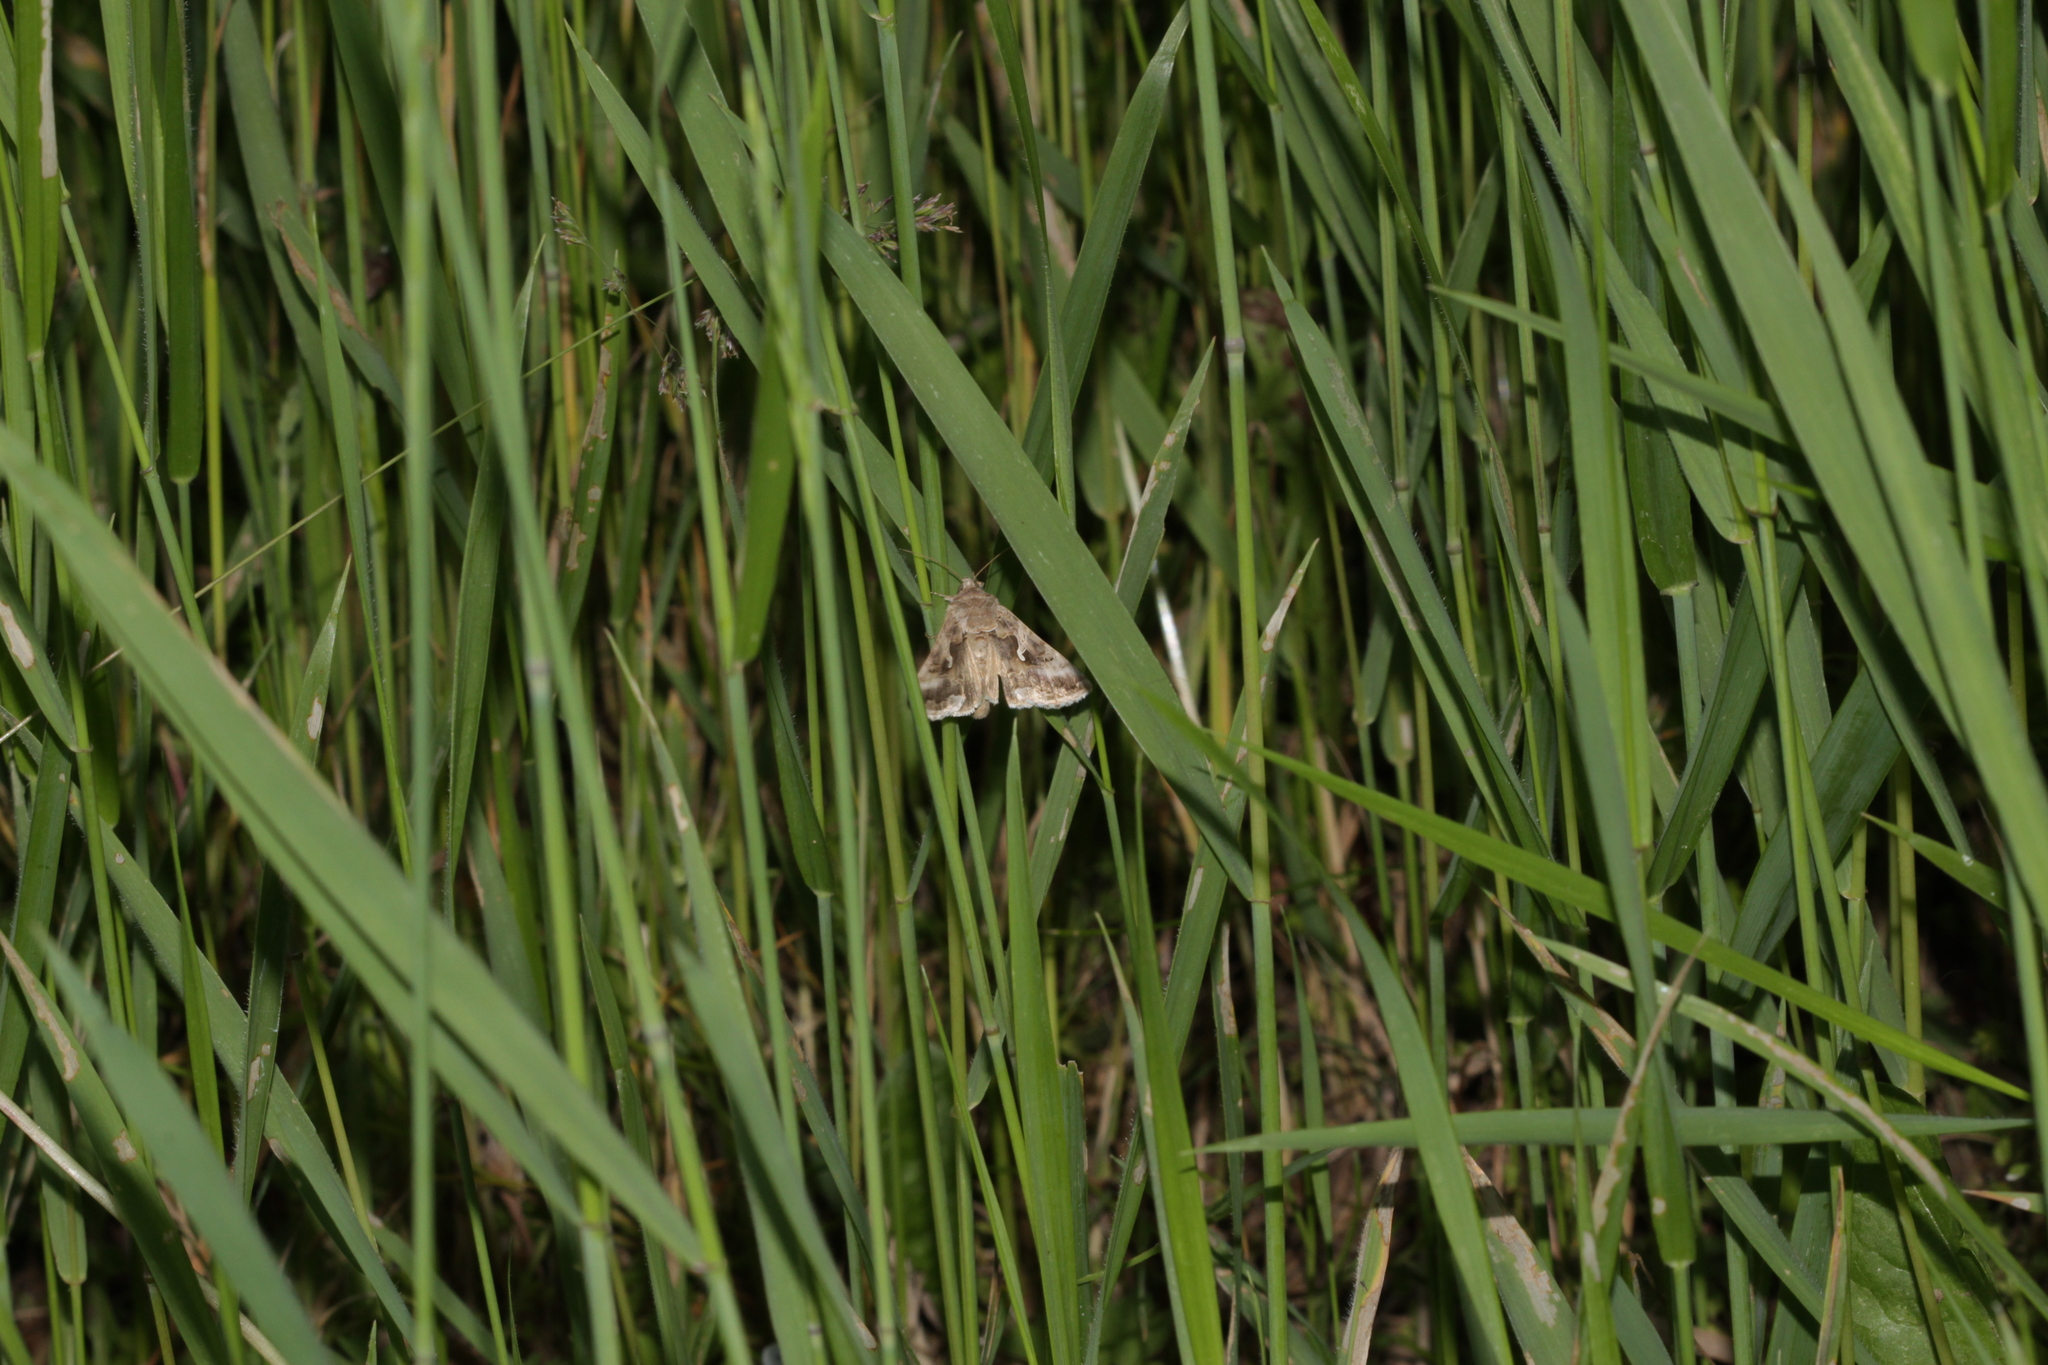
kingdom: Animalia
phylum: Arthropoda
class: Insecta
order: Lepidoptera
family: Noctuidae
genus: Autographa
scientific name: Autographa gamma
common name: Silver y
